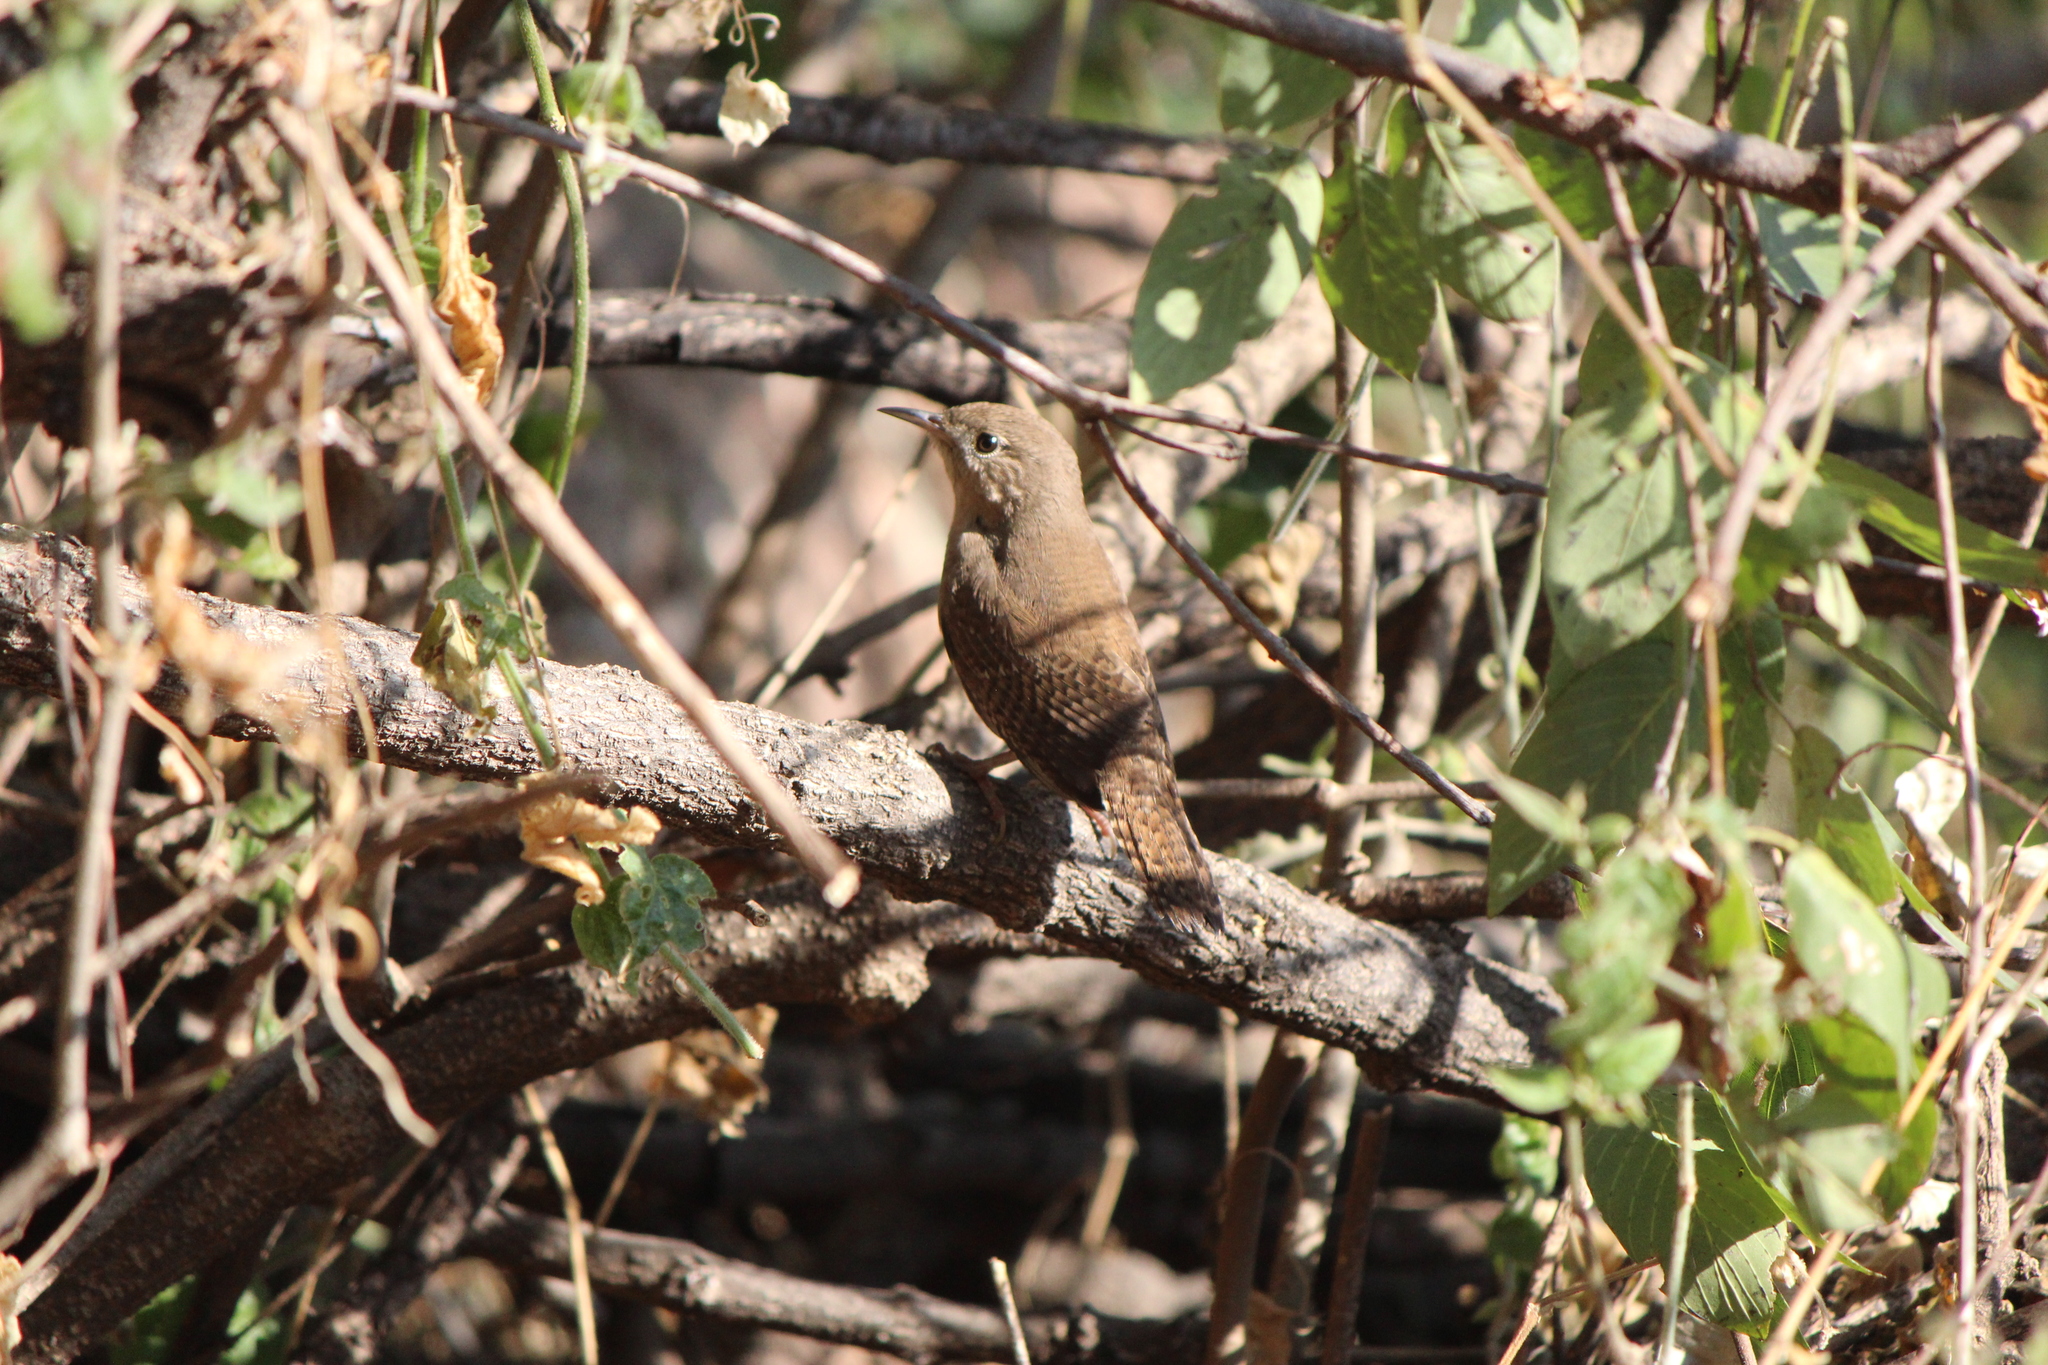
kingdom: Animalia
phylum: Chordata
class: Aves
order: Passeriformes
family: Troglodytidae
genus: Troglodytes
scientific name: Troglodytes aedon
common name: House wren
